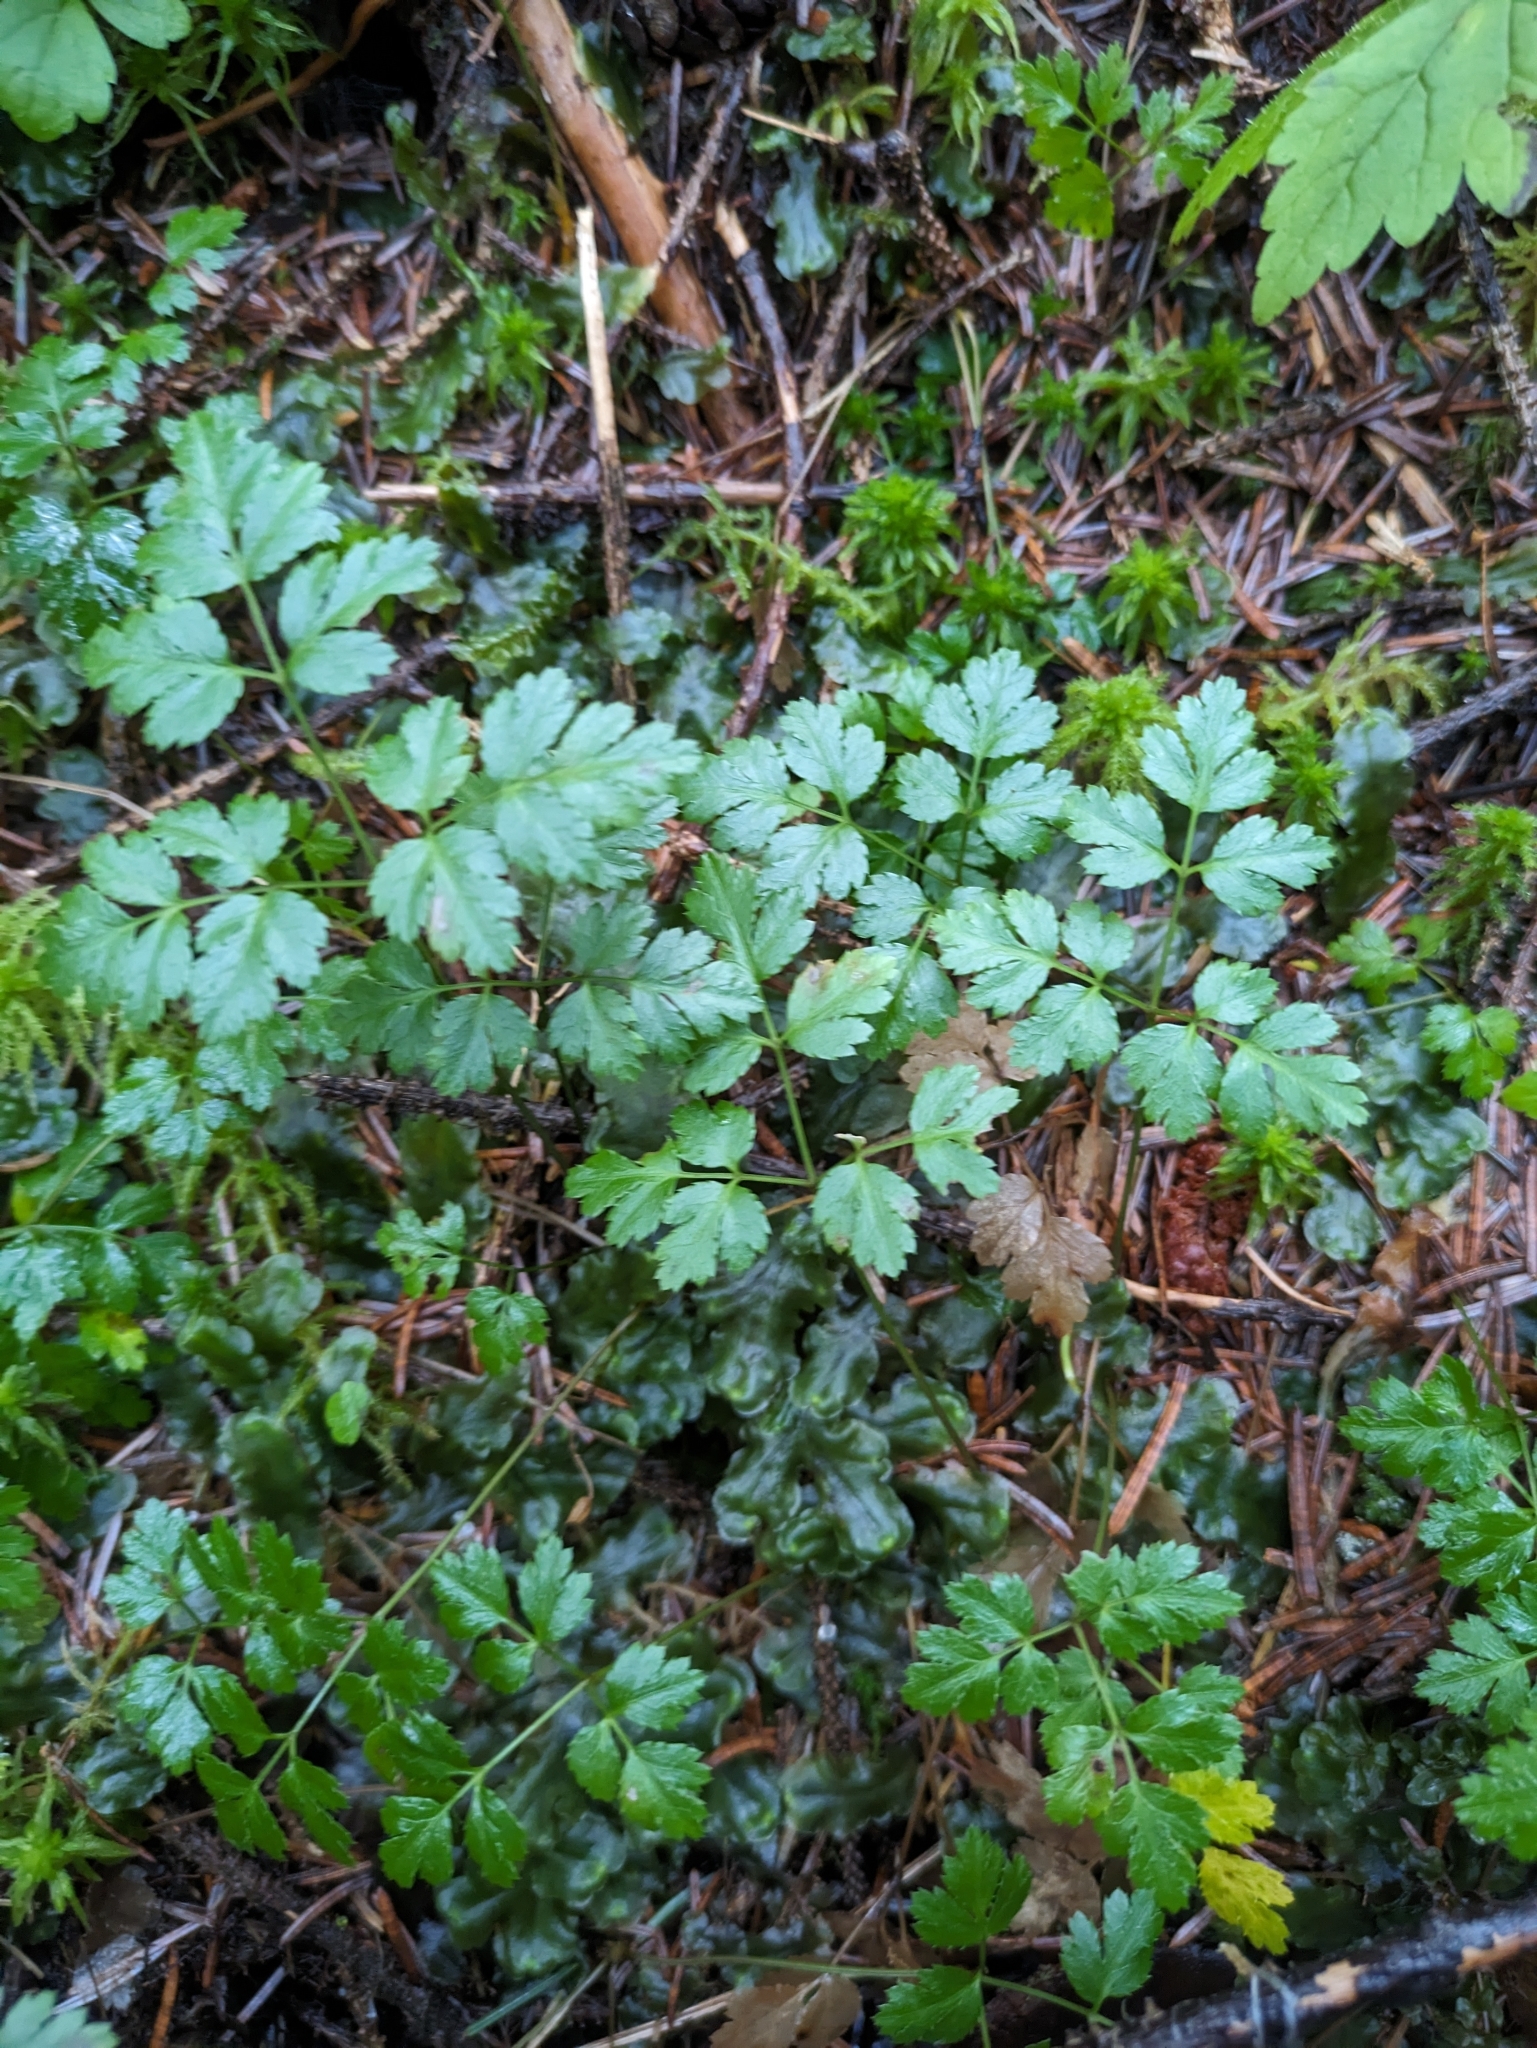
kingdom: Plantae
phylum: Tracheophyta
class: Magnoliopsida
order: Ranunculales
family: Ranunculaceae
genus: Coptis
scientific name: Coptis aspleniifolia
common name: Fern-leaved goldthread
